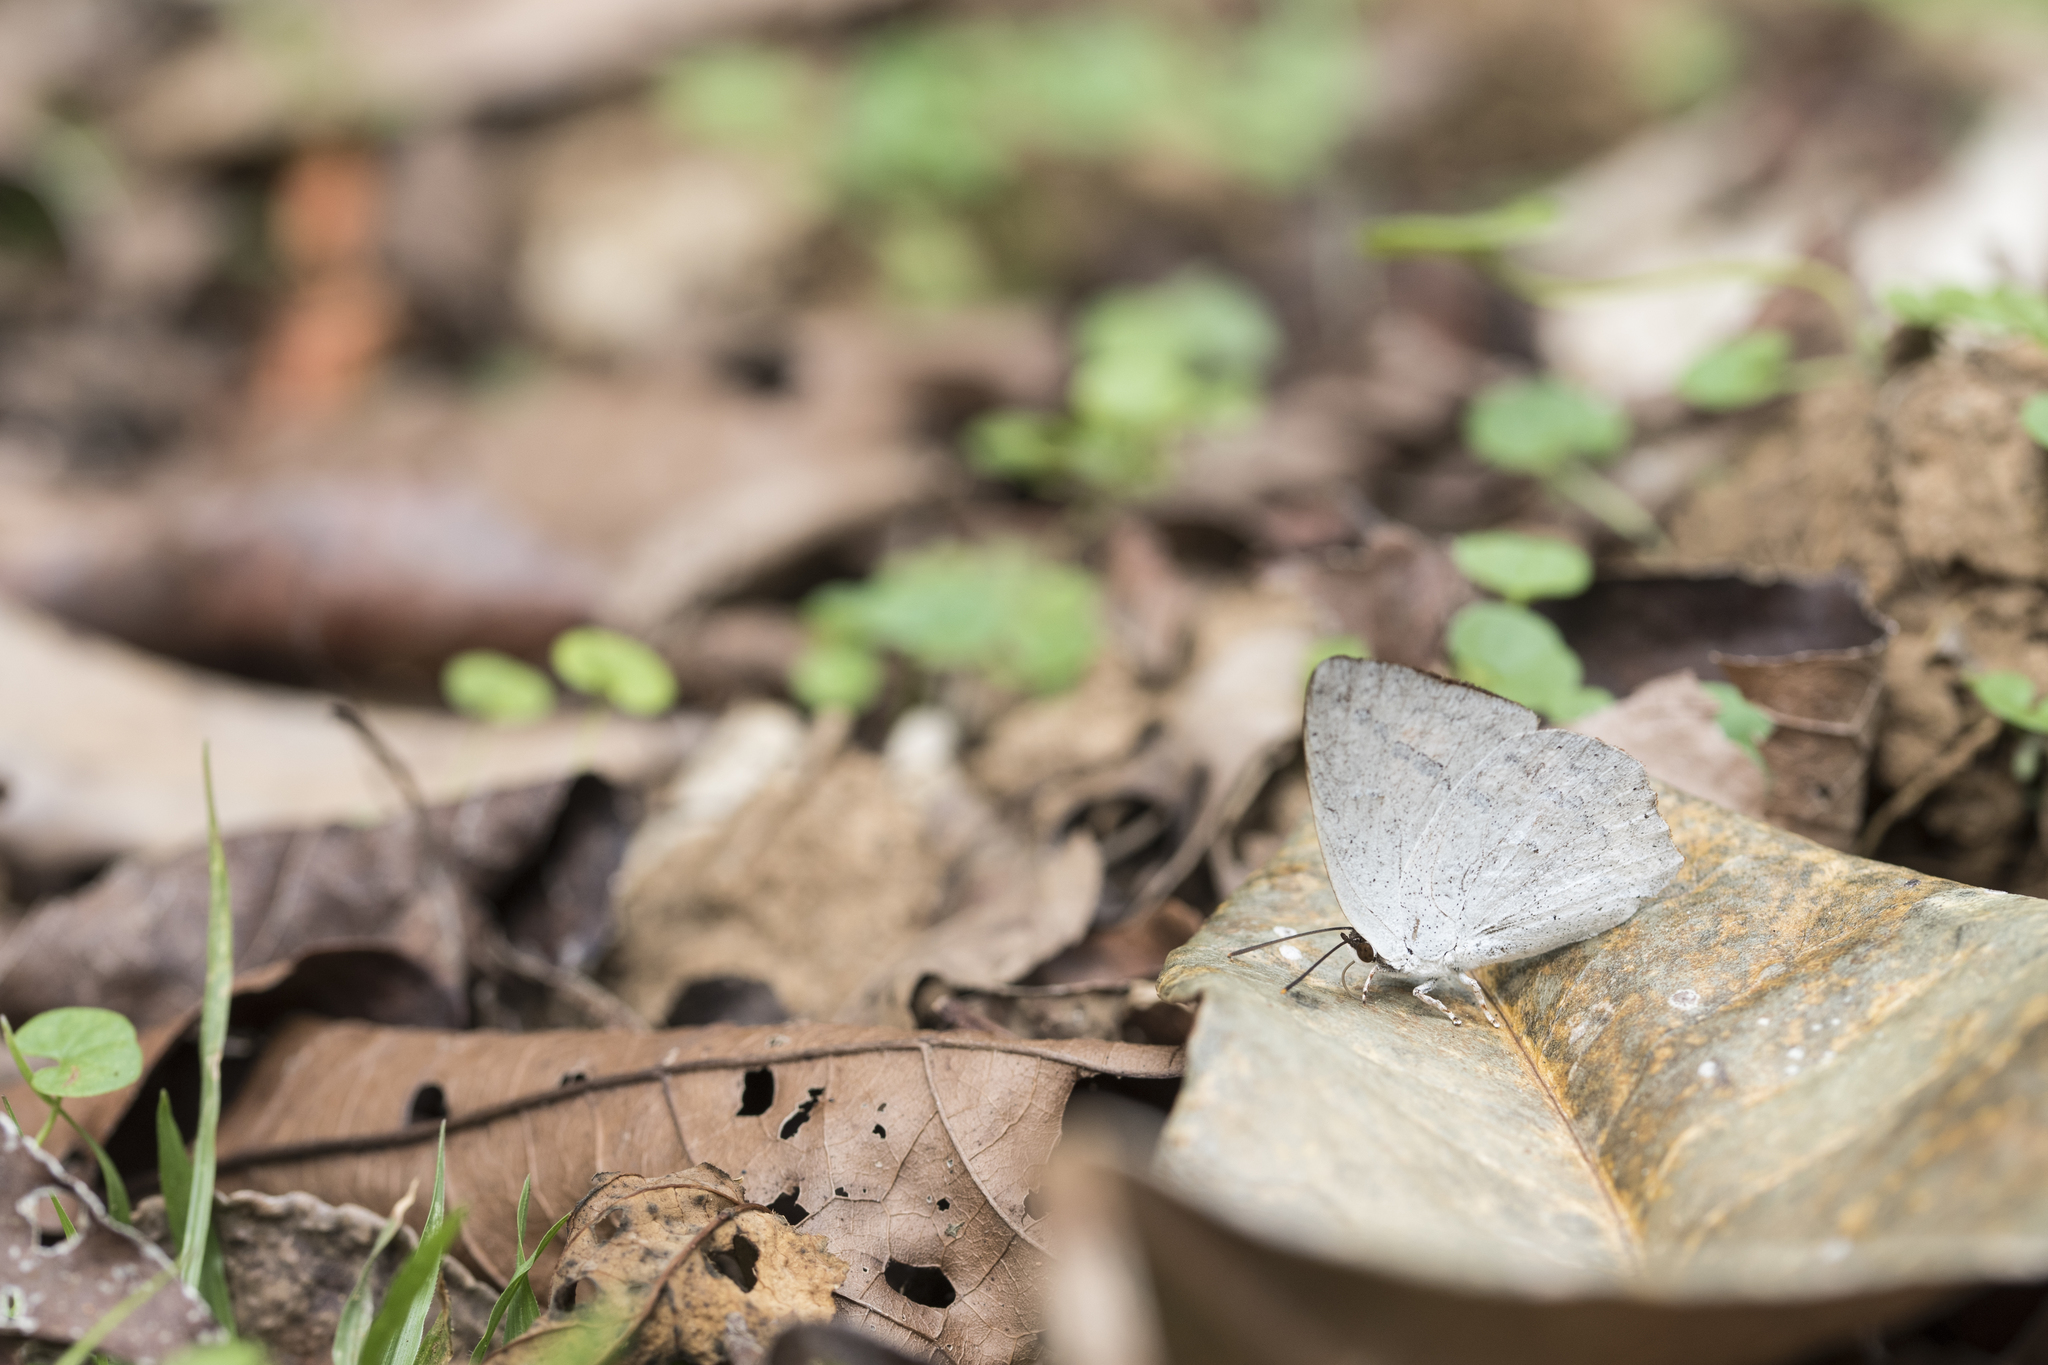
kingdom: Animalia
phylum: Arthropoda
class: Insecta
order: Lepidoptera
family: Lycaenidae
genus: Curetis
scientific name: Curetis acuta
